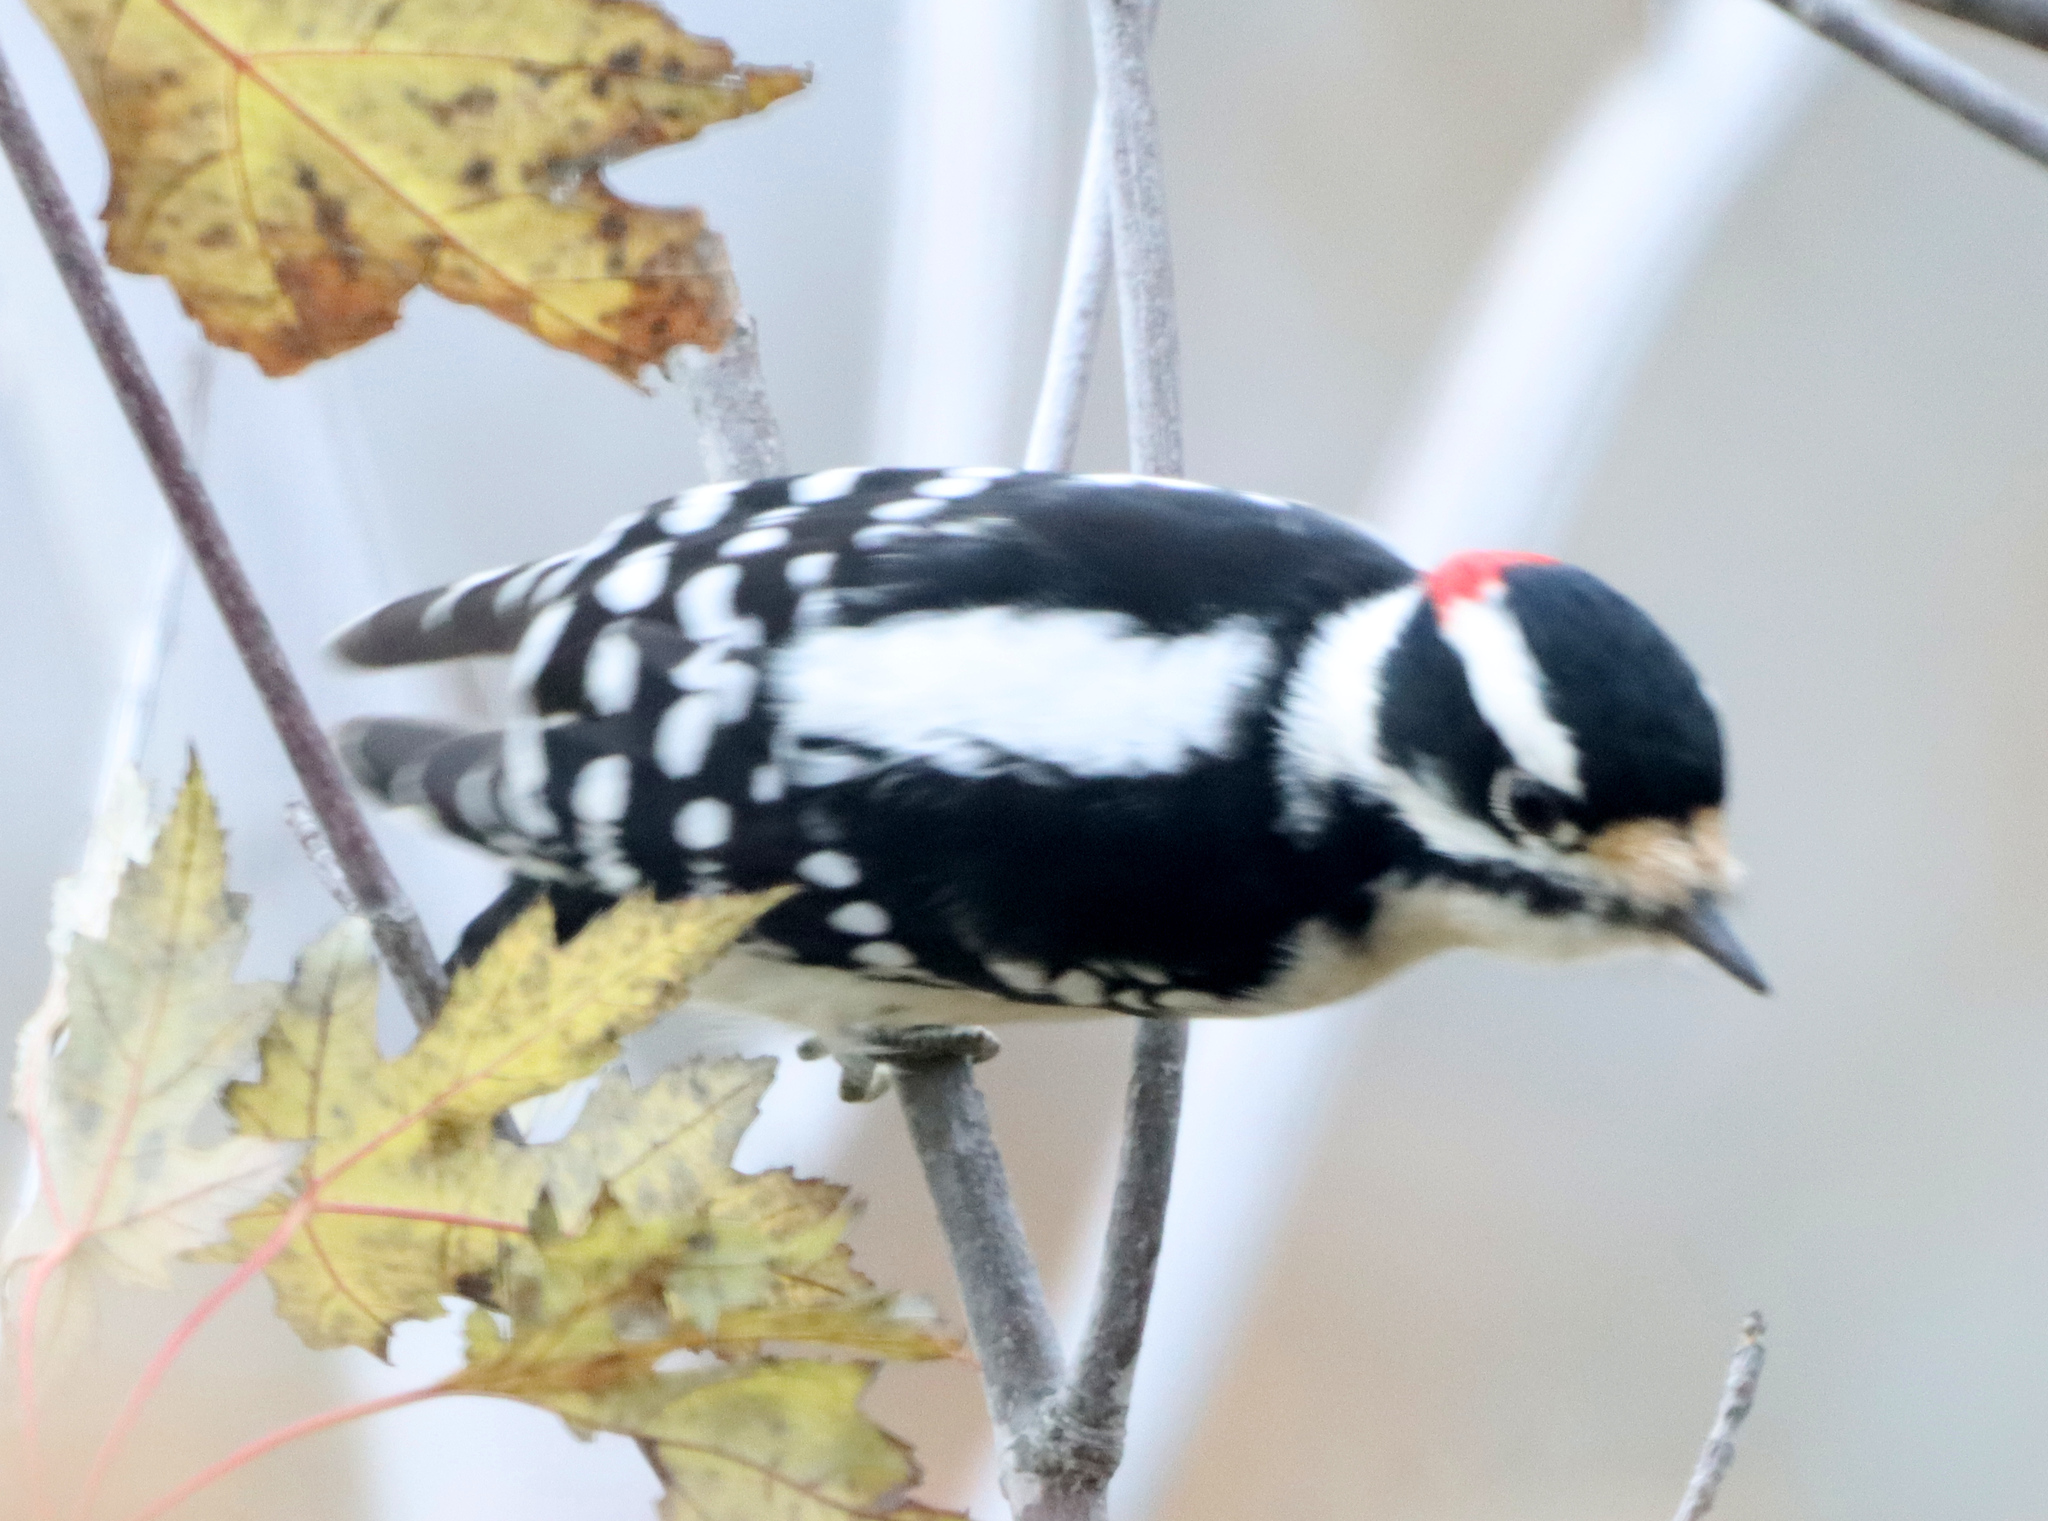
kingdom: Animalia
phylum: Chordata
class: Aves
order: Piciformes
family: Picidae
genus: Dryobates
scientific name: Dryobates pubescens
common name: Downy woodpecker
